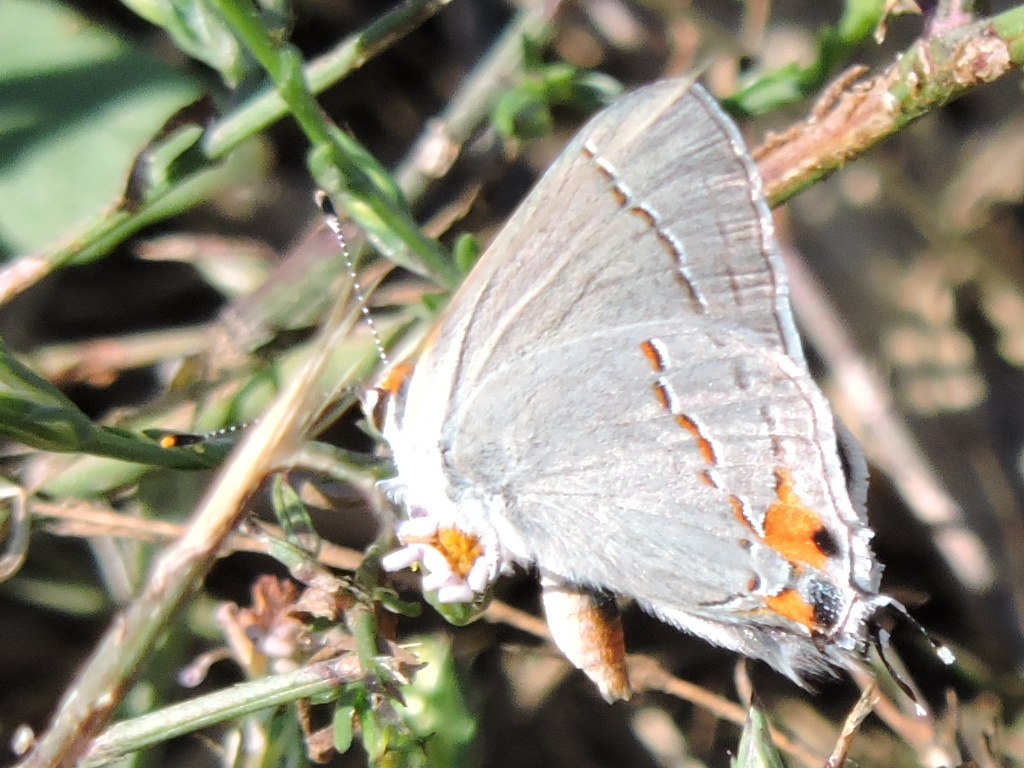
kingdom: Animalia
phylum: Arthropoda
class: Insecta
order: Lepidoptera
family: Lycaenidae
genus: Strymon
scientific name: Strymon melinus
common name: Gray hairstreak
